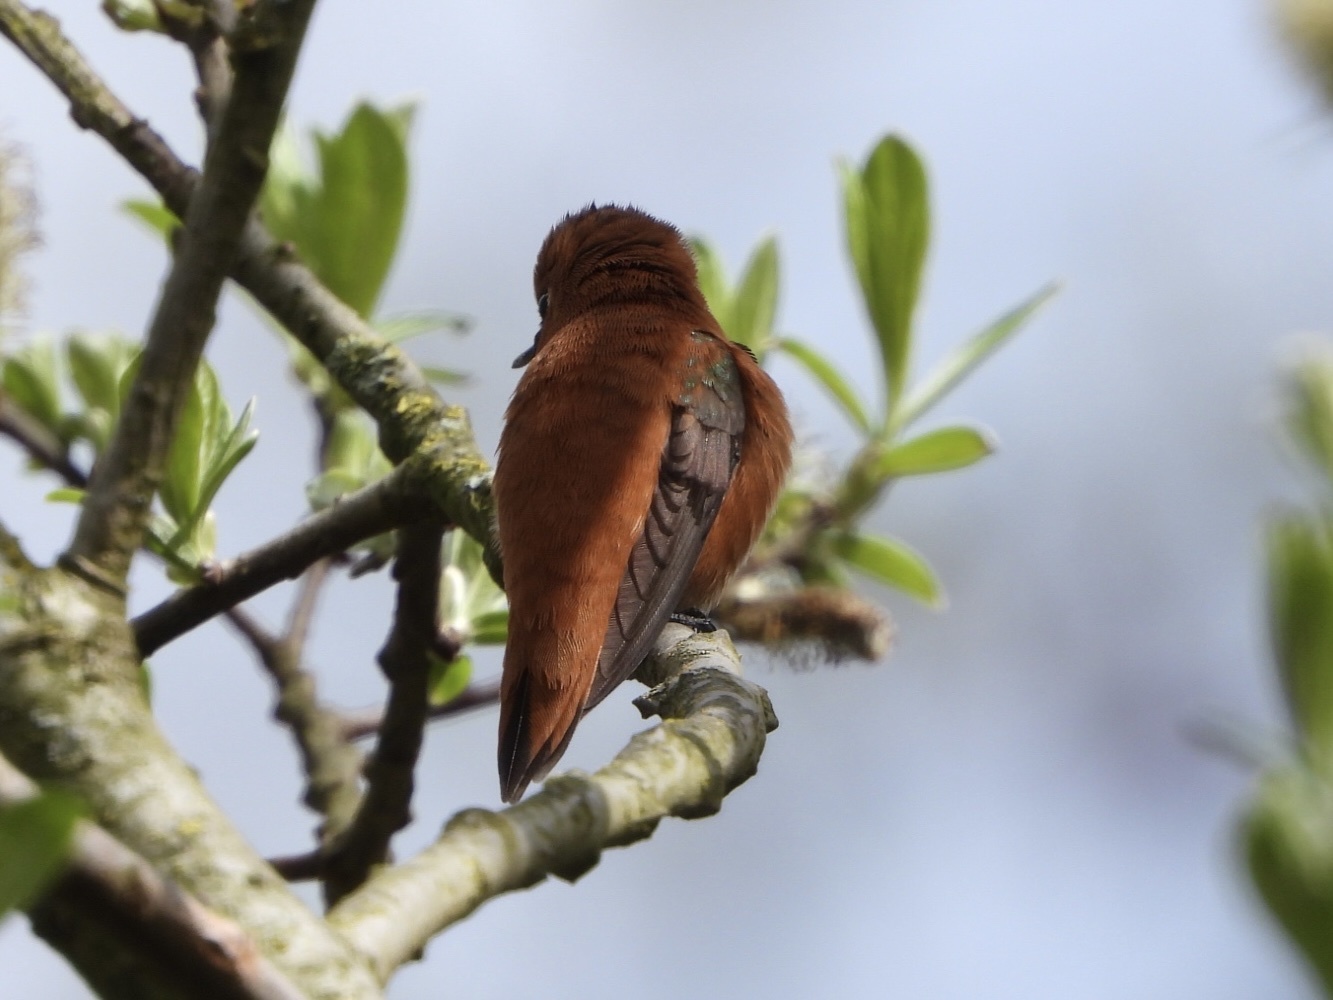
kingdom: Animalia
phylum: Chordata
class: Aves
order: Apodiformes
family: Trochilidae
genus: Selasphorus
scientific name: Selasphorus rufus
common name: Rufous hummingbird
